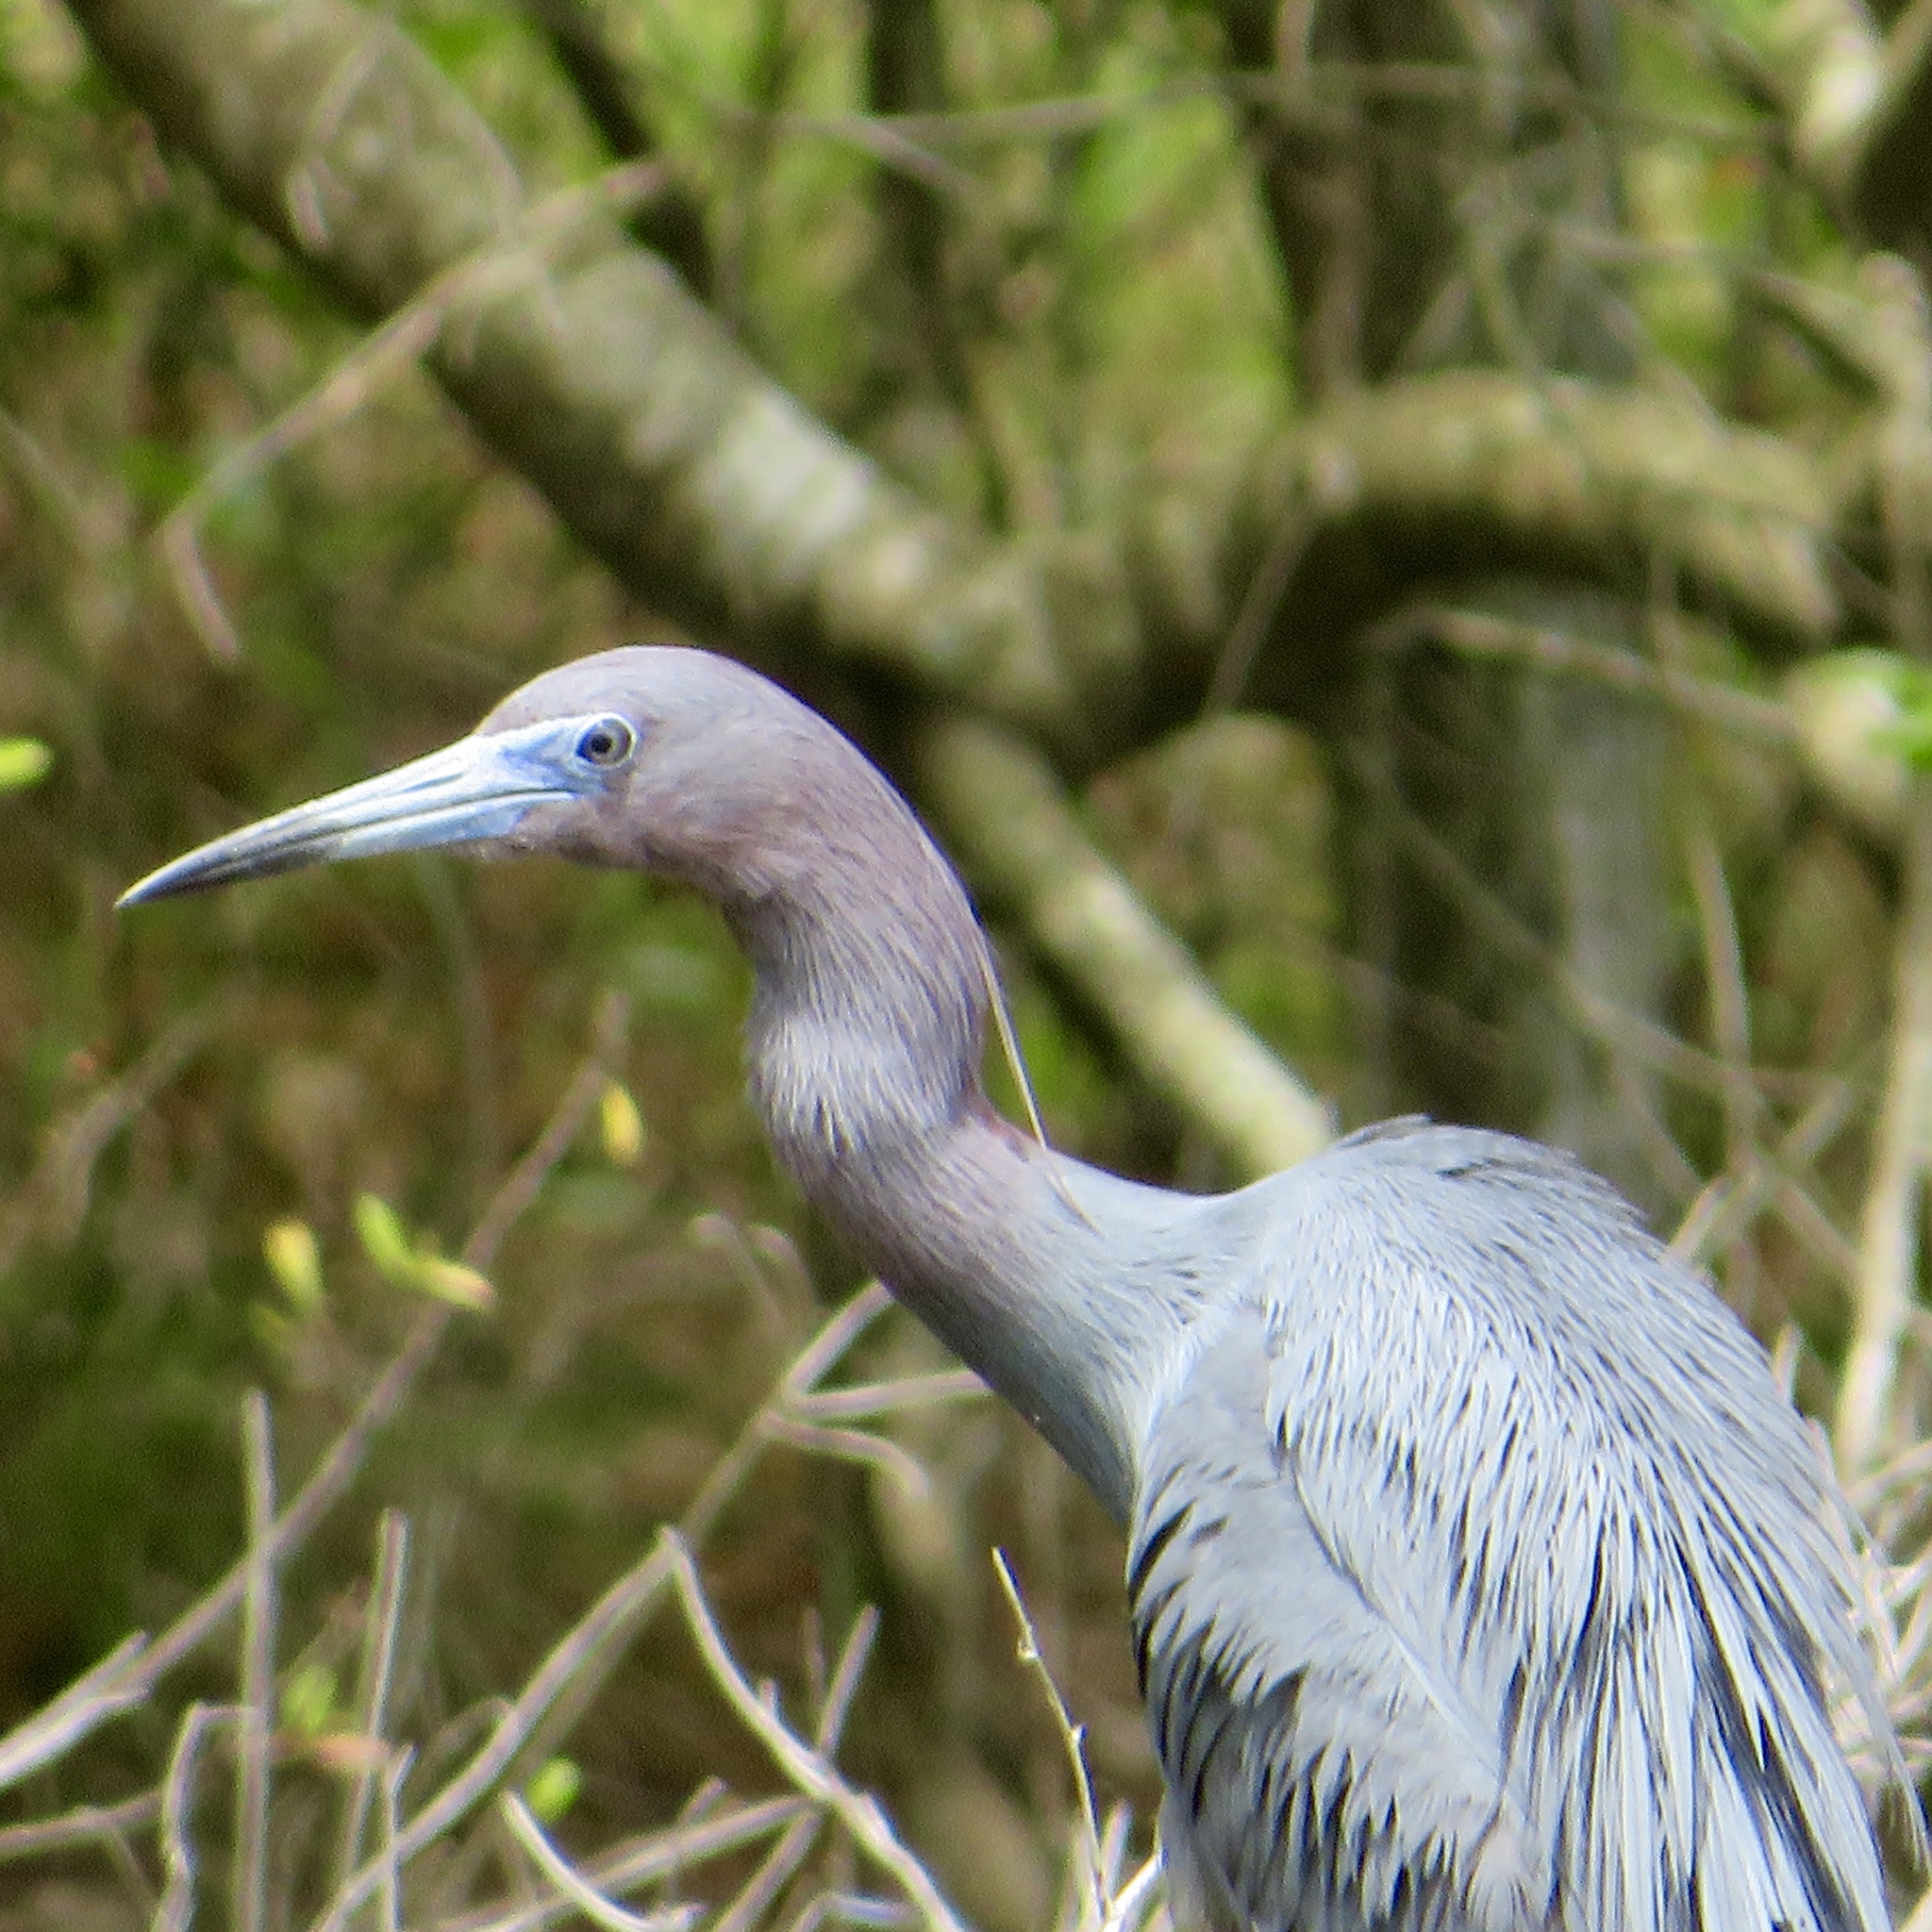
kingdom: Animalia
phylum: Chordata
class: Aves
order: Pelecaniformes
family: Ardeidae
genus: Egretta
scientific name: Egretta caerulea
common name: Little blue heron
